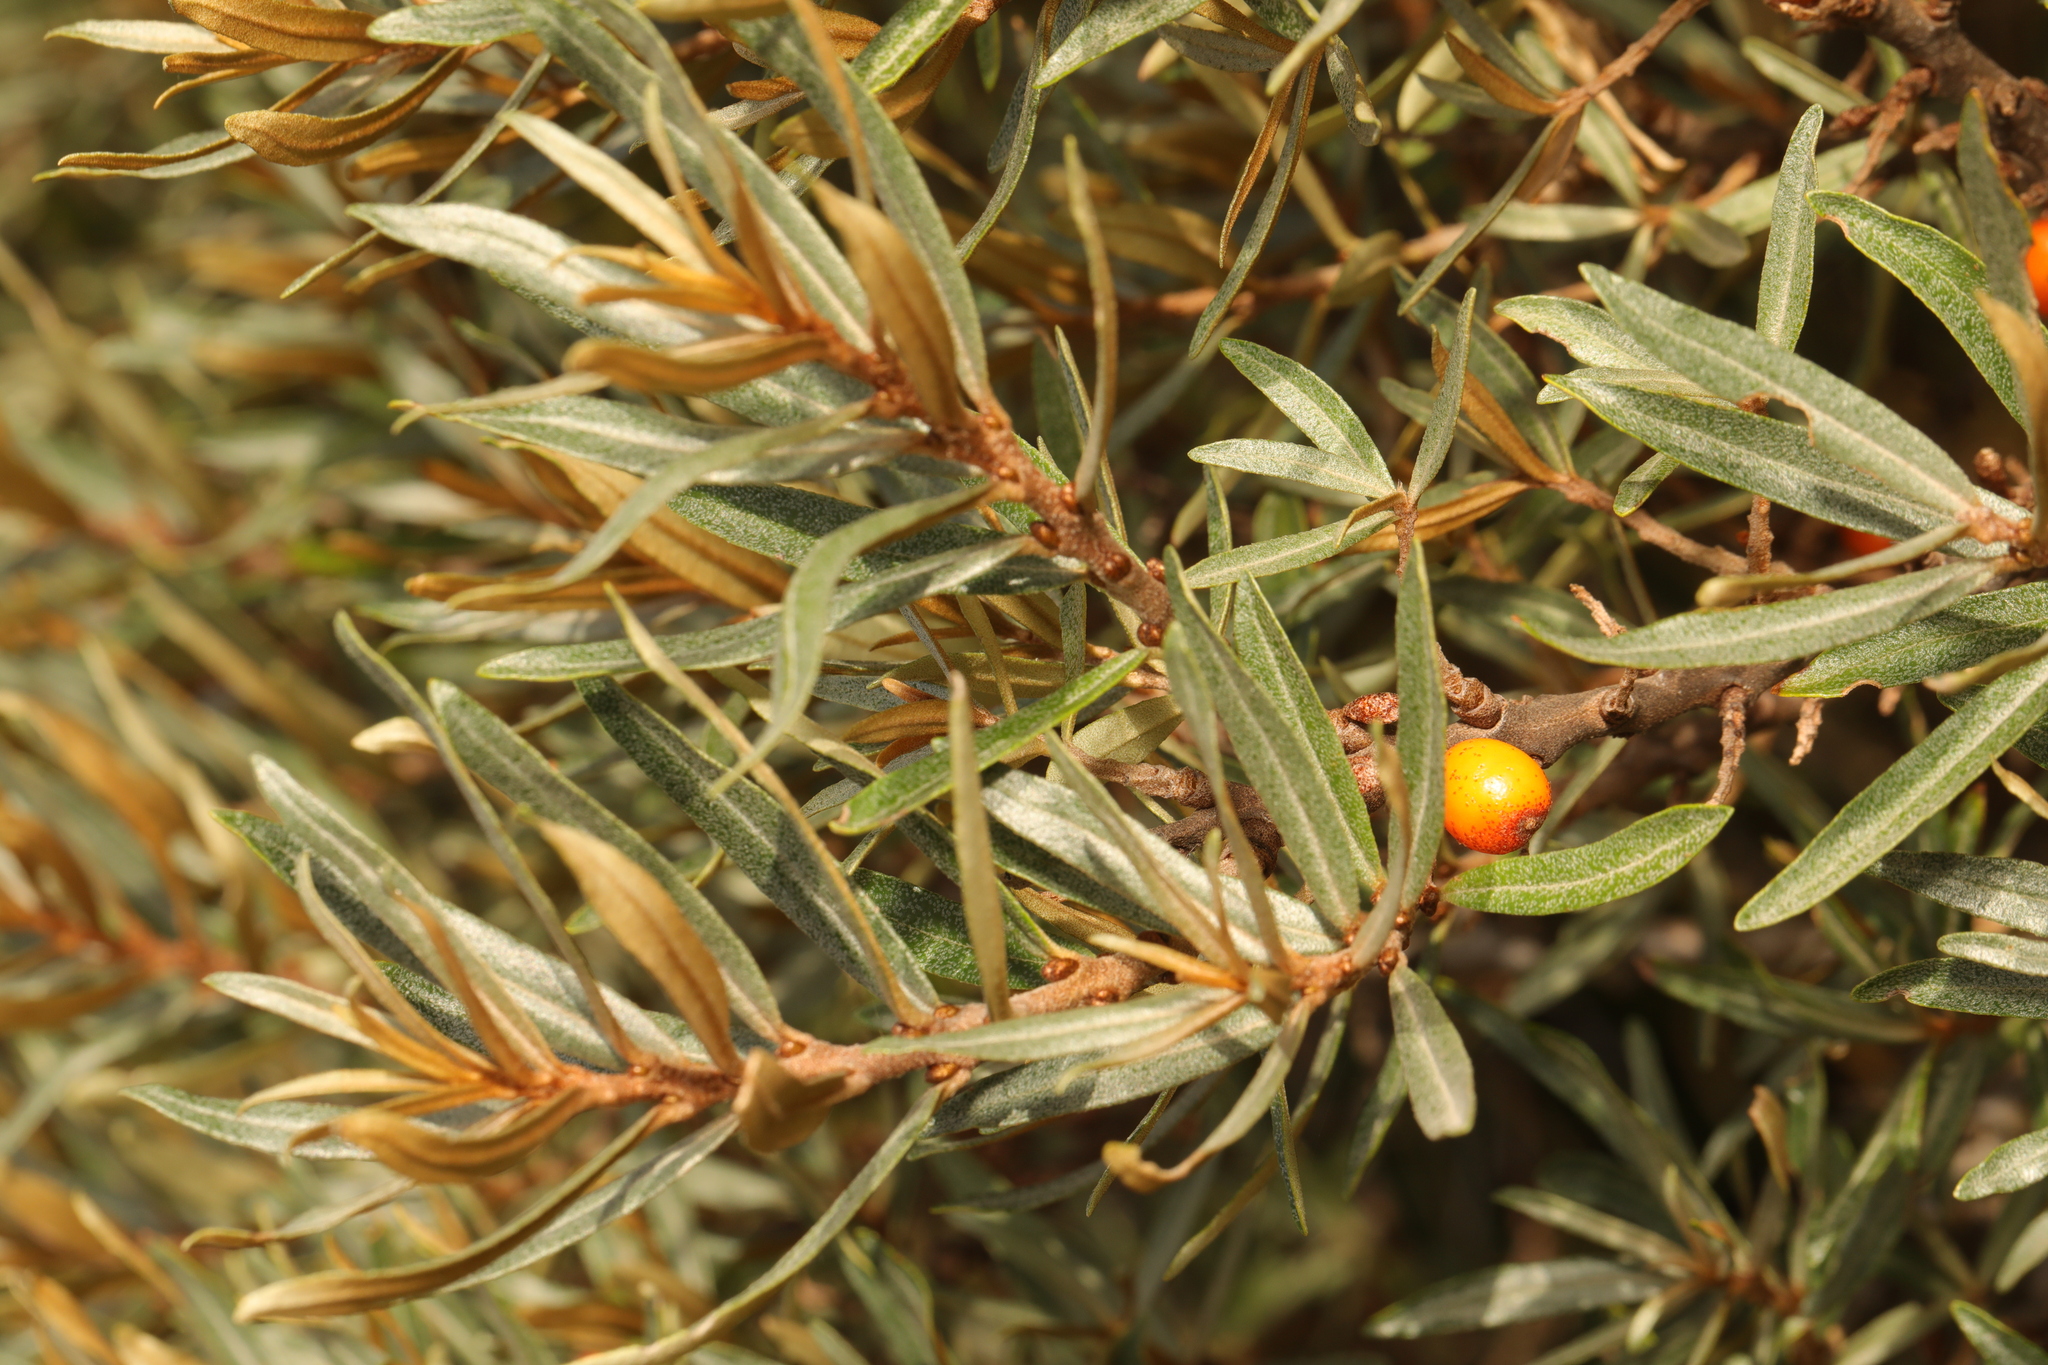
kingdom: Plantae
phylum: Tracheophyta
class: Magnoliopsida
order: Rosales
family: Elaeagnaceae
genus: Hippophae
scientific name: Hippophae rhamnoides
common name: Sea-buckthorn
